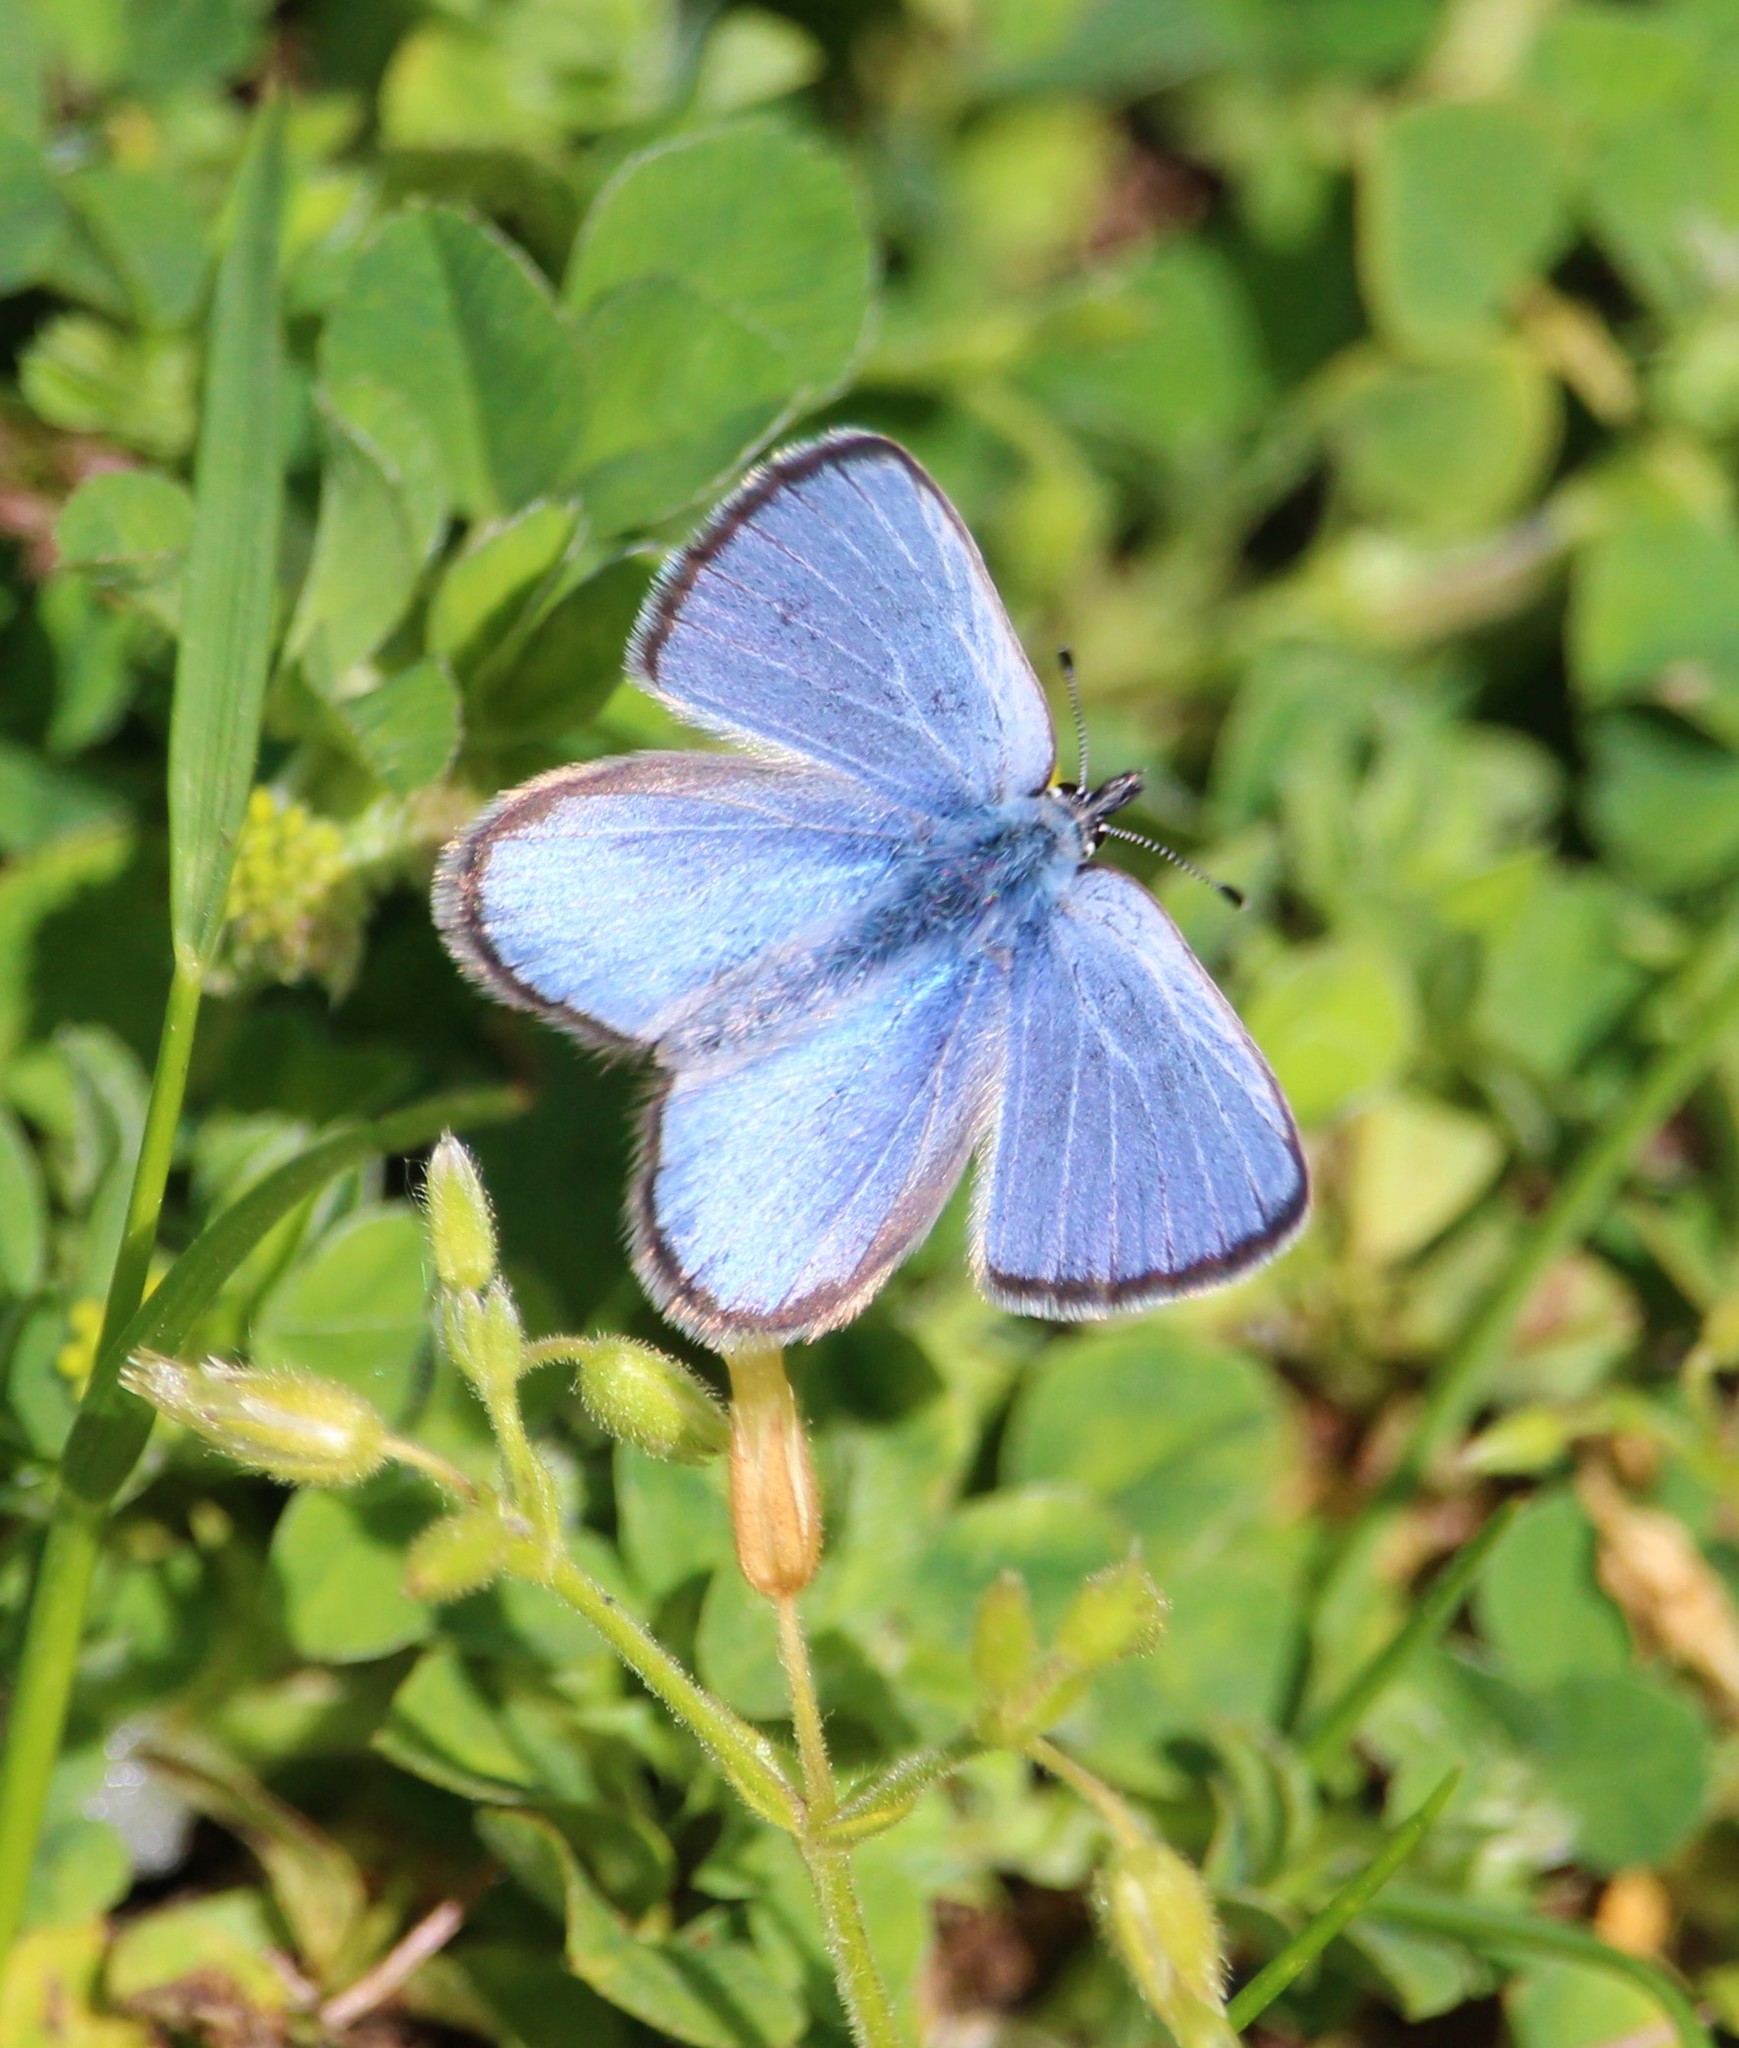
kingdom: Animalia
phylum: Arthropoda
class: Insecta
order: Lepidoptera
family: Lycaenidae
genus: Glaucopsyche
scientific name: Glaucopsyche lygdamus
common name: Silvery blue
